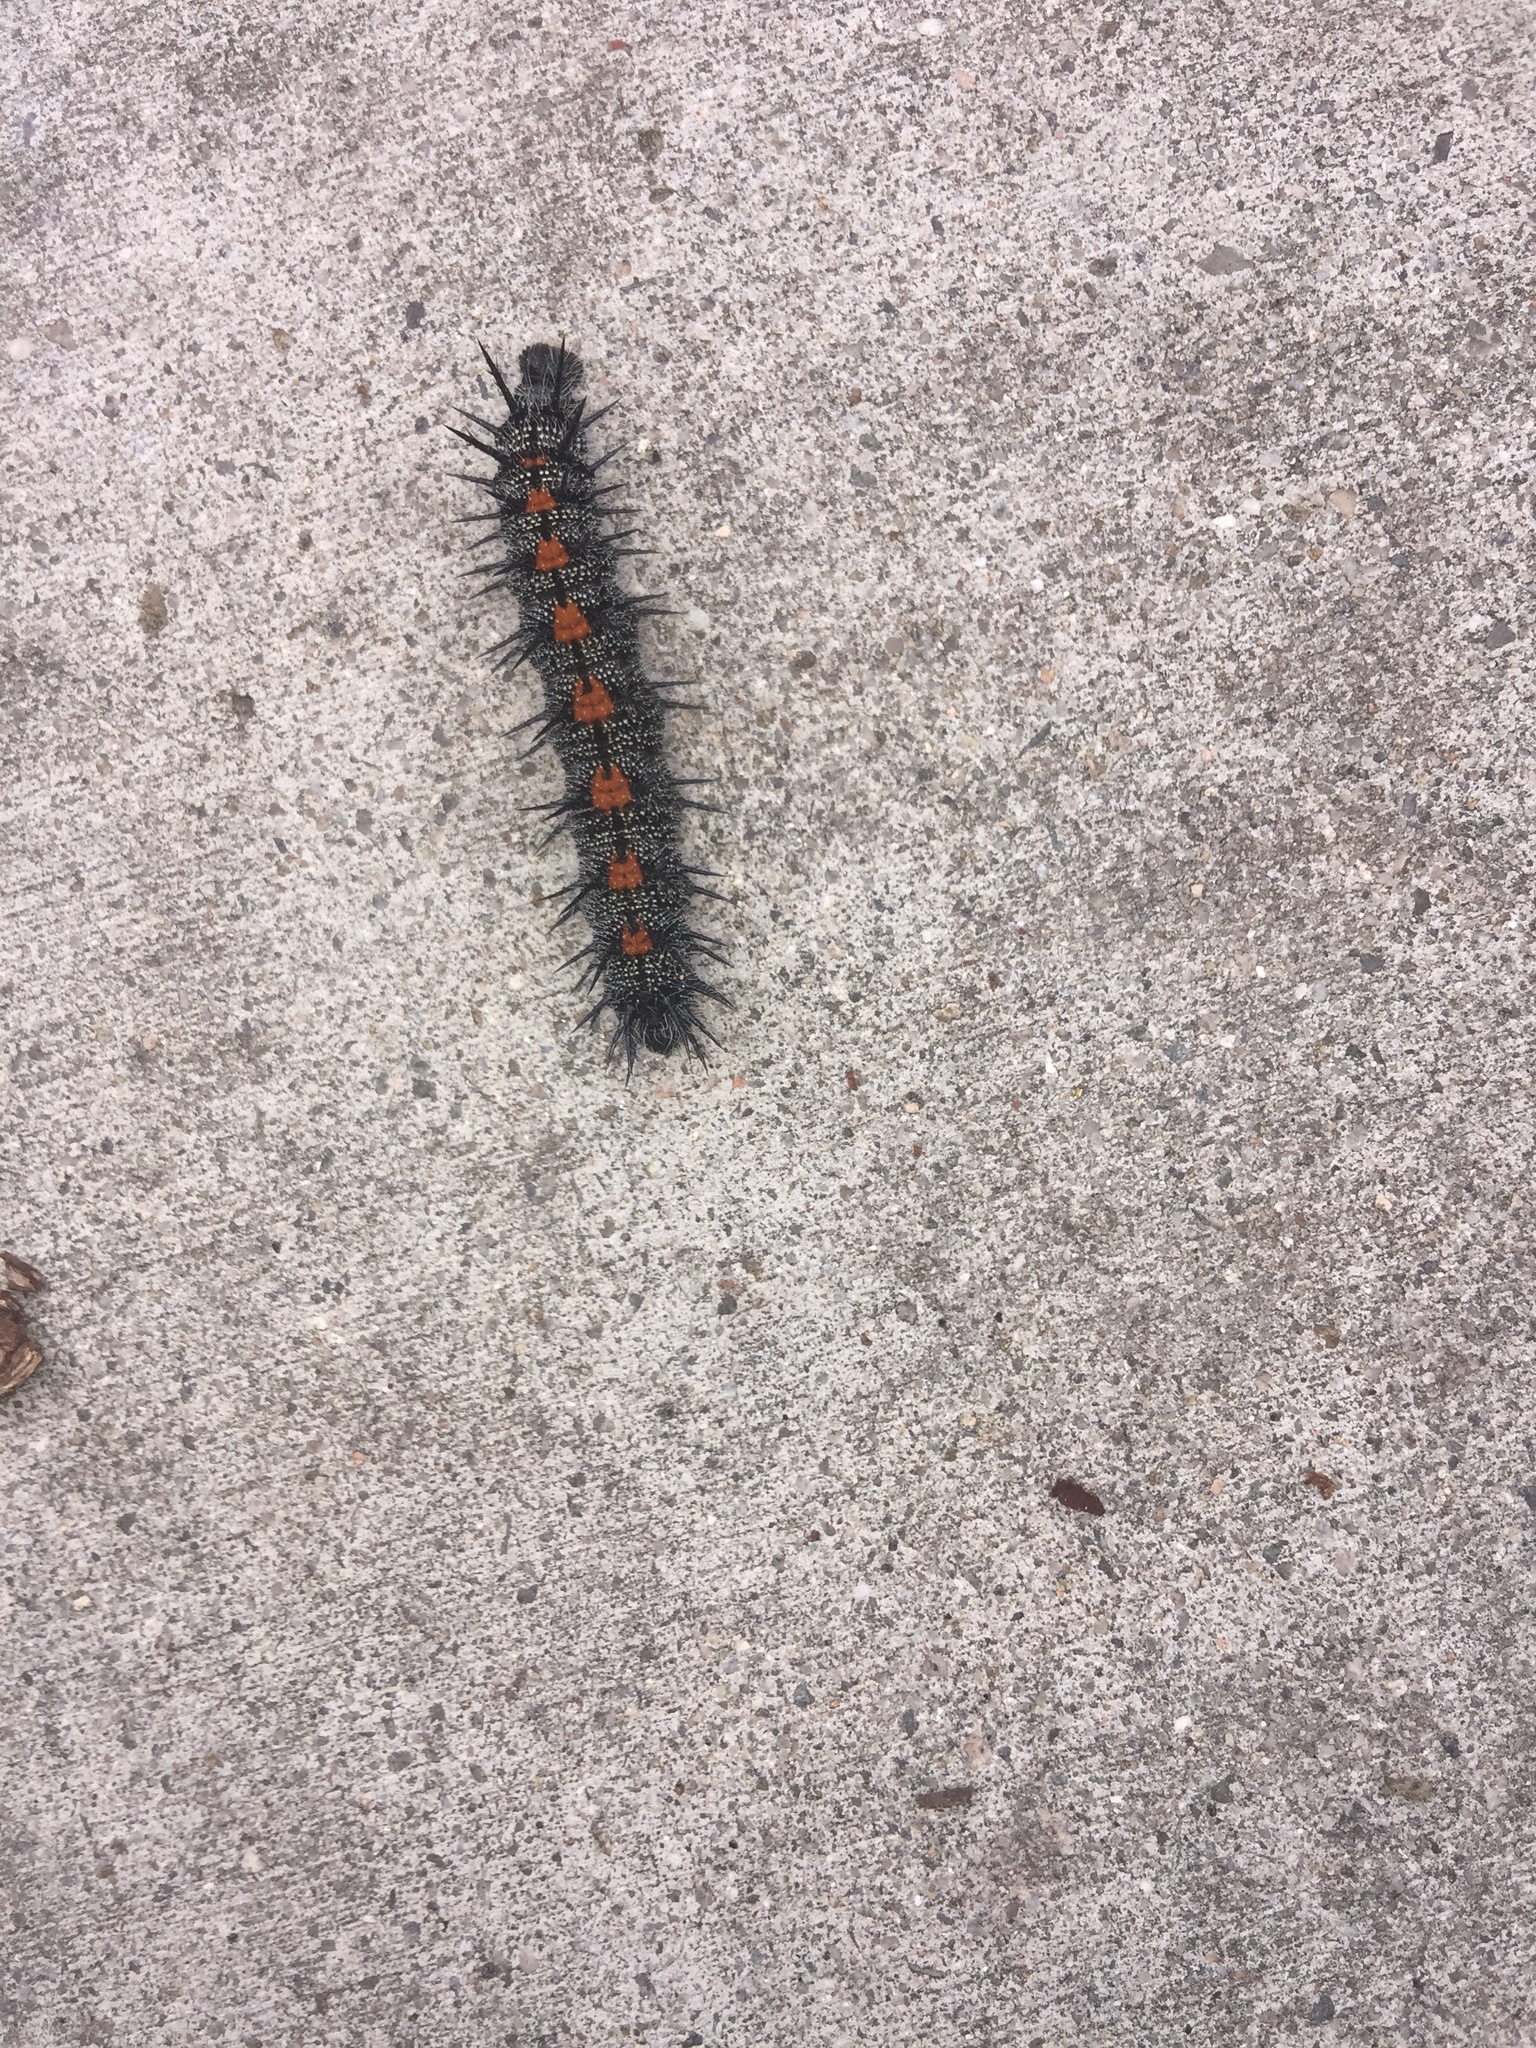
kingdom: Animalia
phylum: Arthropoda
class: Insecta
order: Lepidoptera
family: Nymphalidae
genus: Nymphalis
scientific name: Nymphalis antiopa
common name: Camberwell beauty
